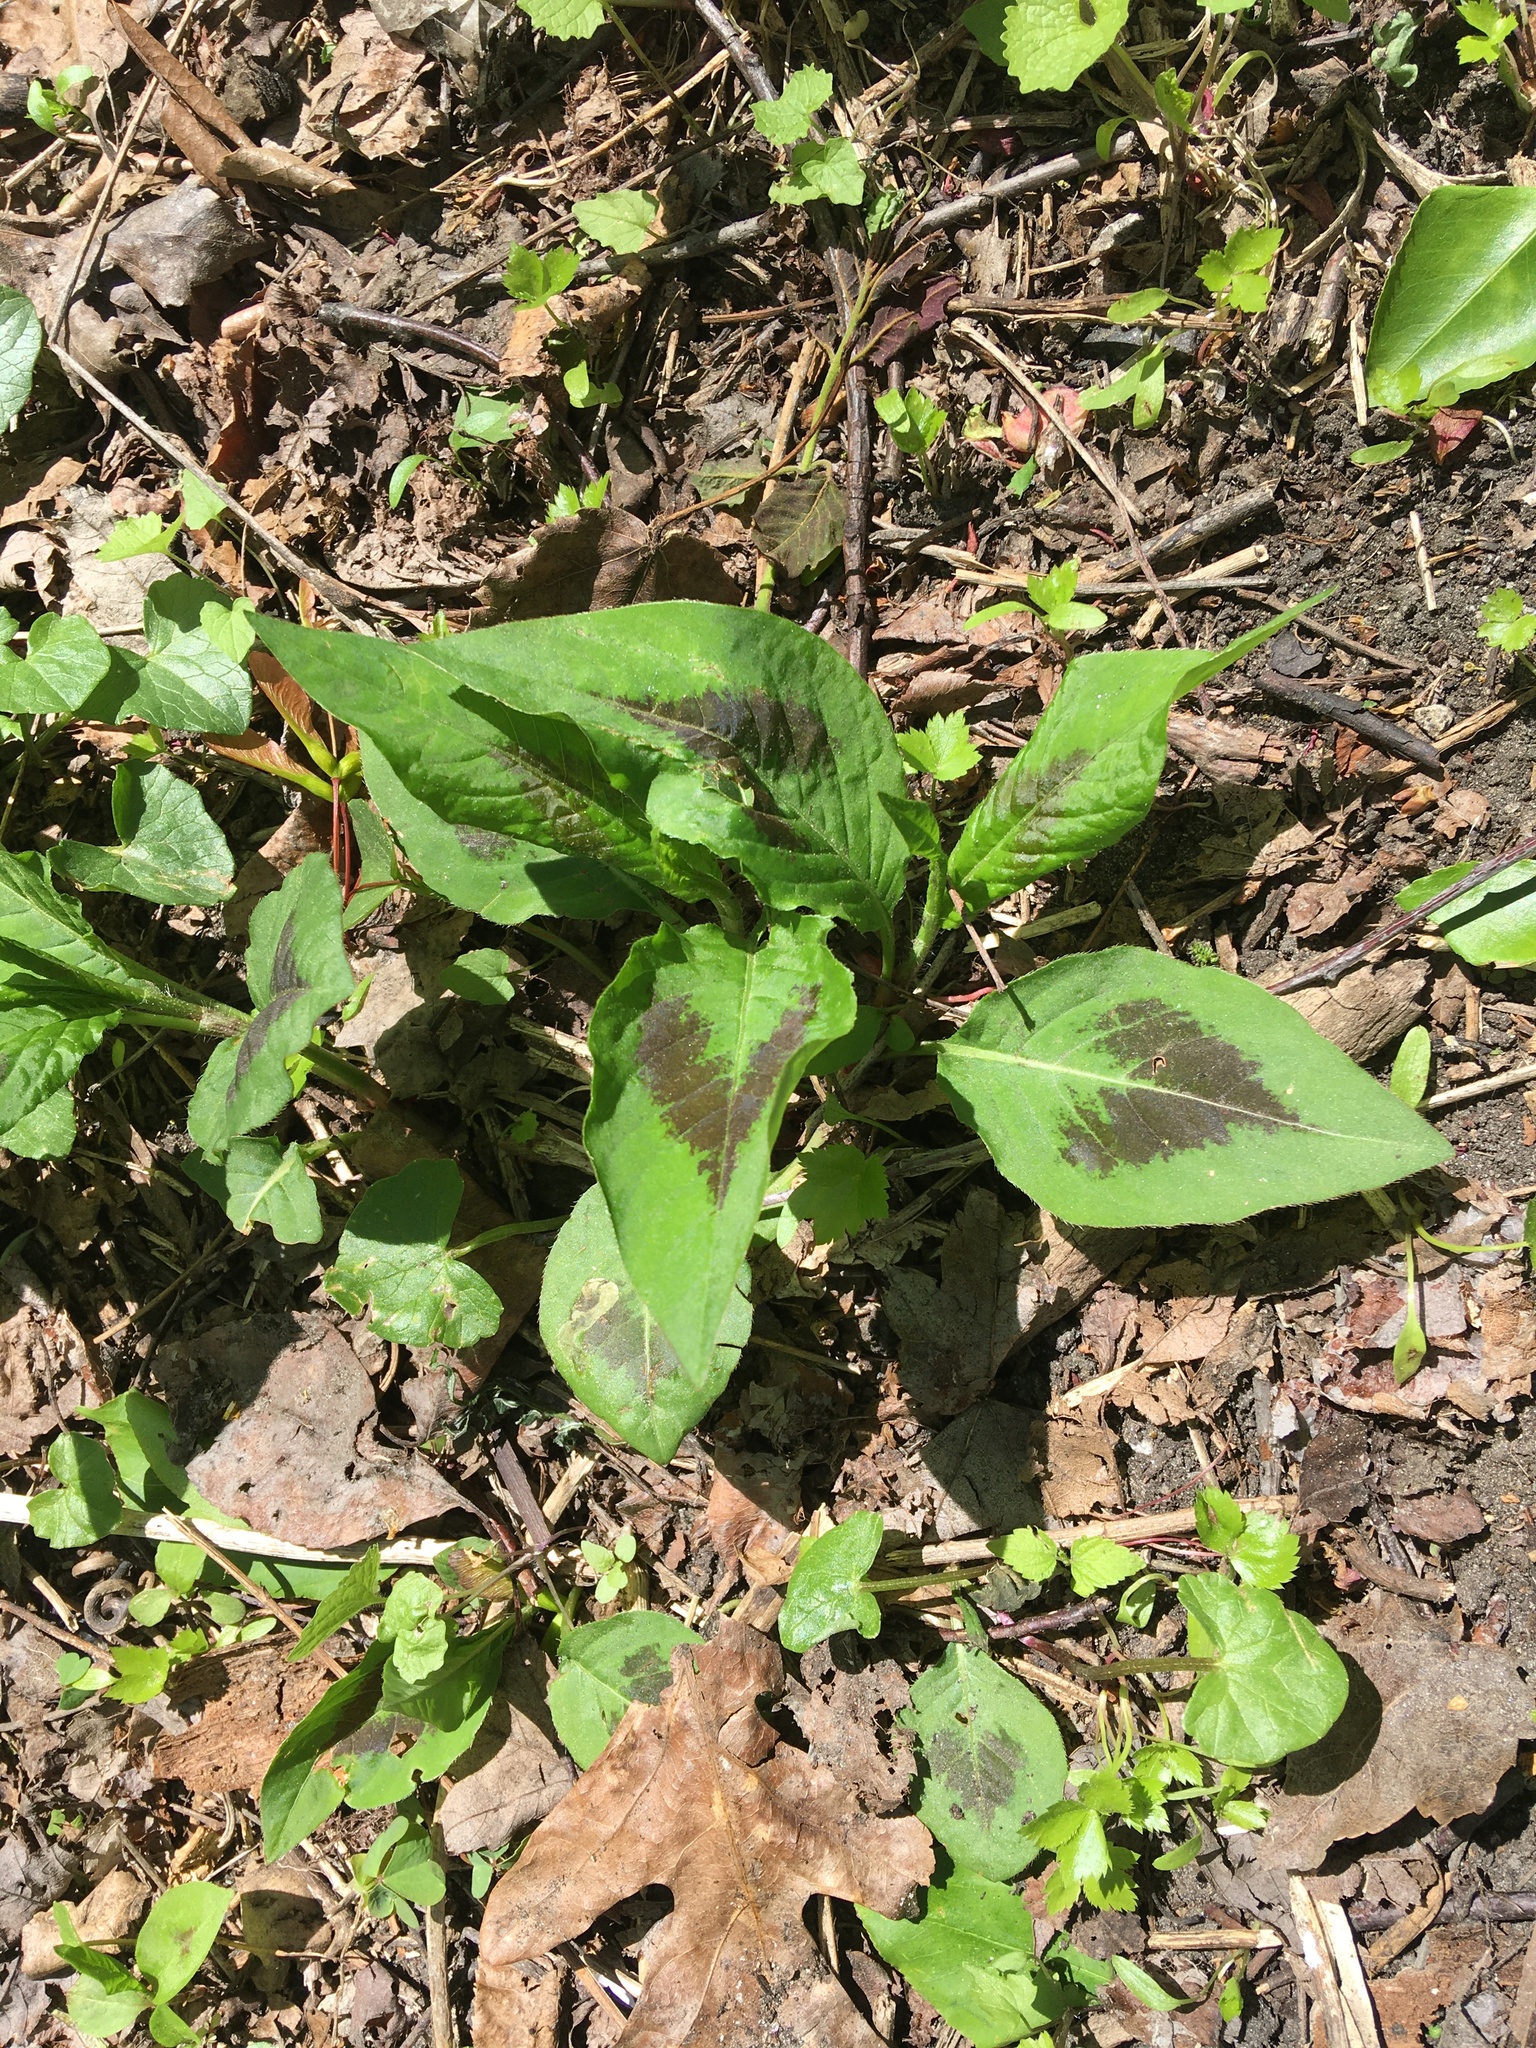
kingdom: Plantae
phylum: Tracheophyta
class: Magnoliopsida
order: Caryophyllales
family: Polygonaceae
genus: Persicaria
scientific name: Persicaria virginiana
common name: Jumpseed
